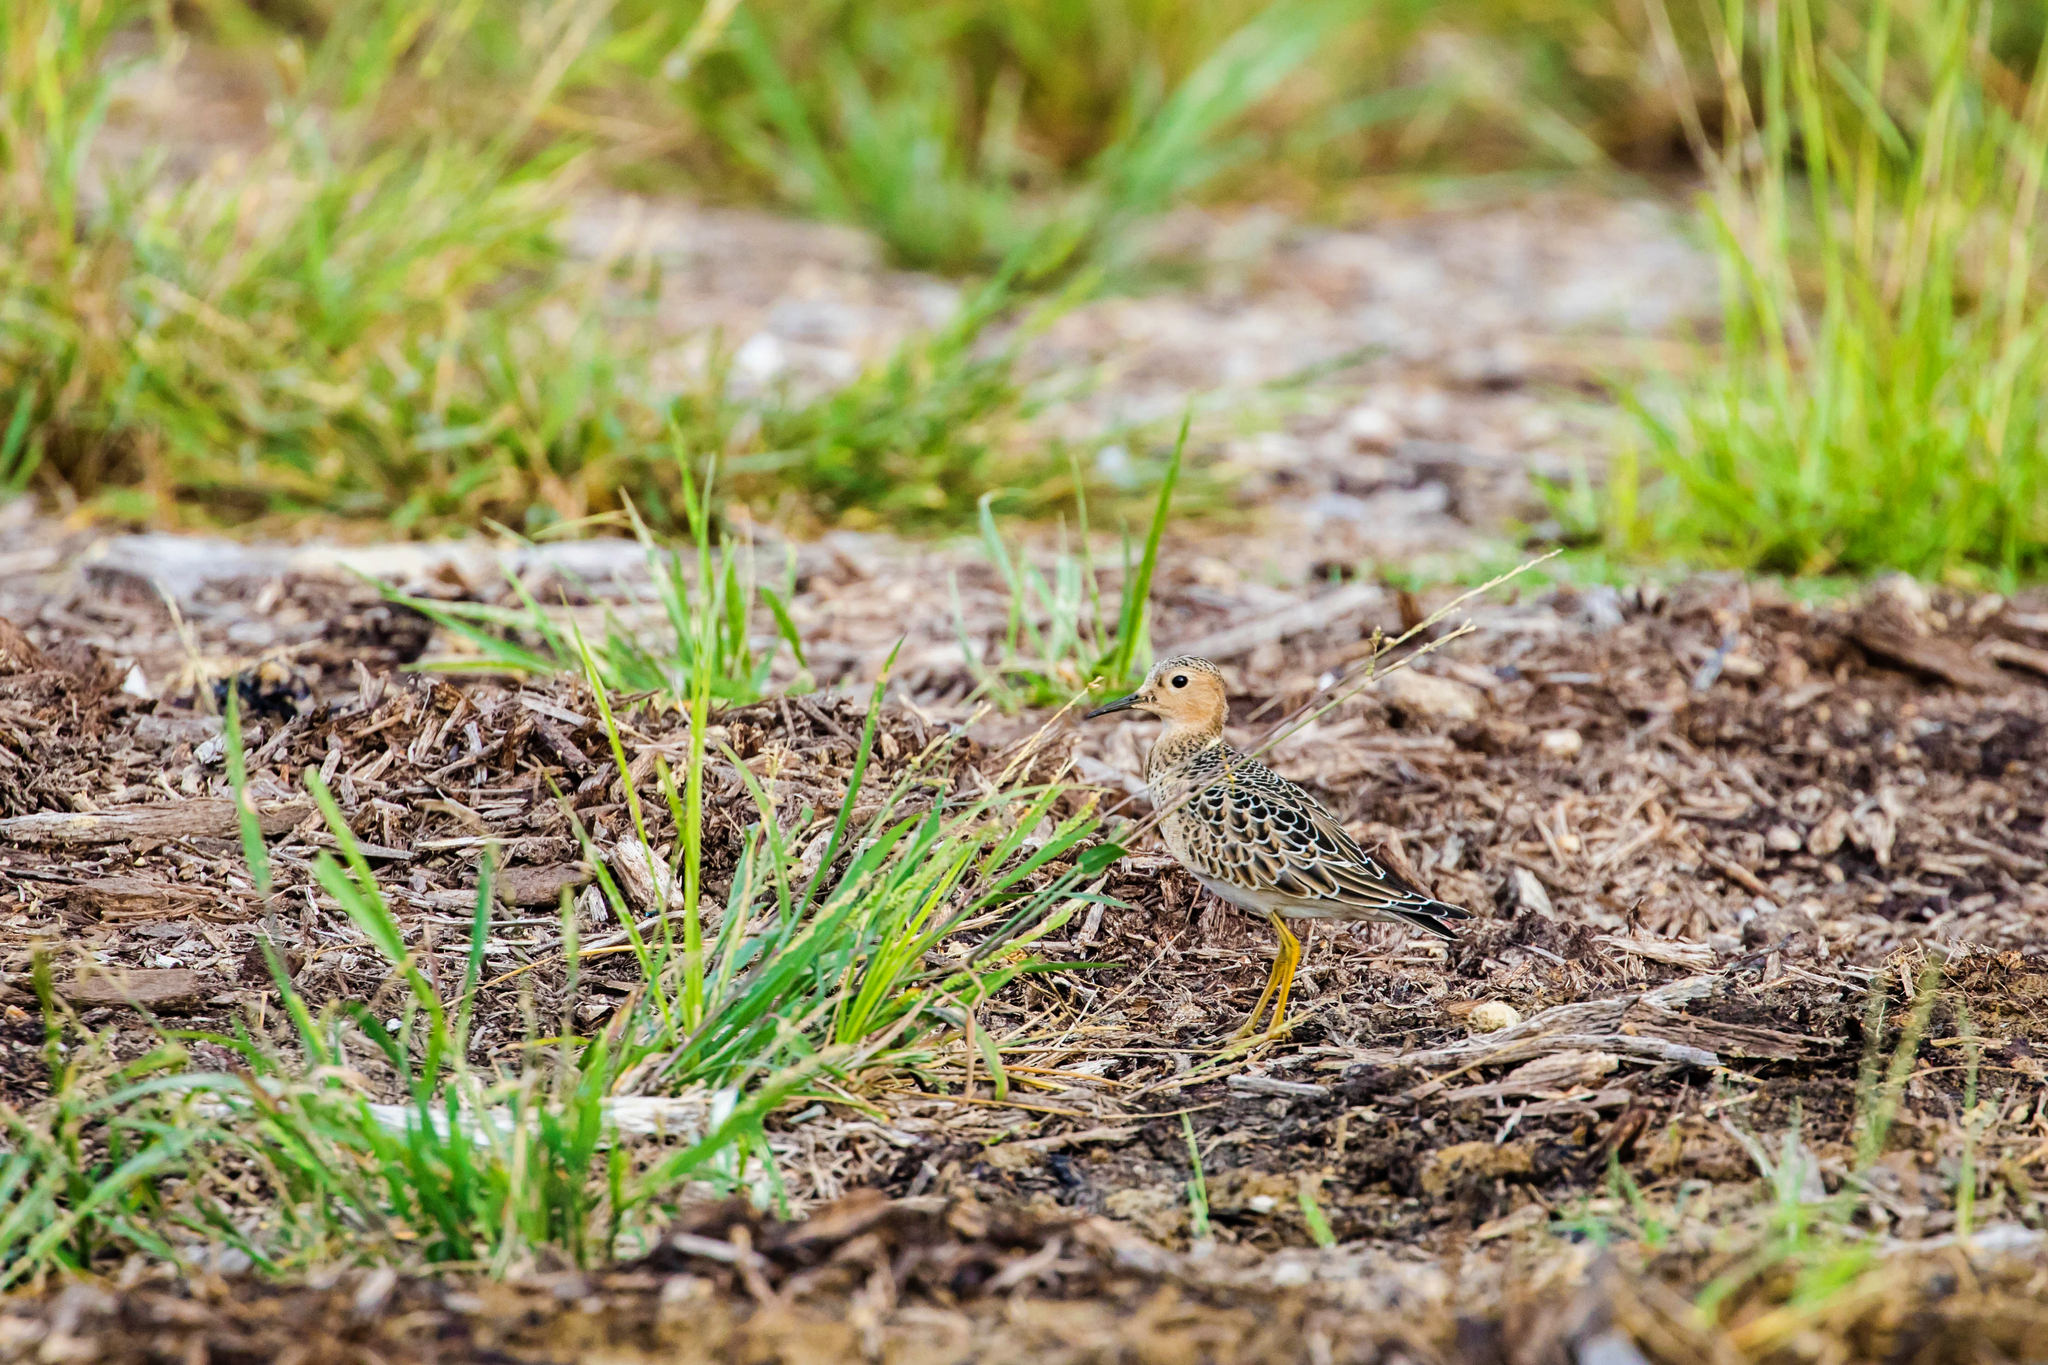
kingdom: Animalia
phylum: Chordata
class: Aves
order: Charadriiformes
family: Scolopacidae
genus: Calidris
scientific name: Calidris subruficollis
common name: Buff-breasted sandpiper
